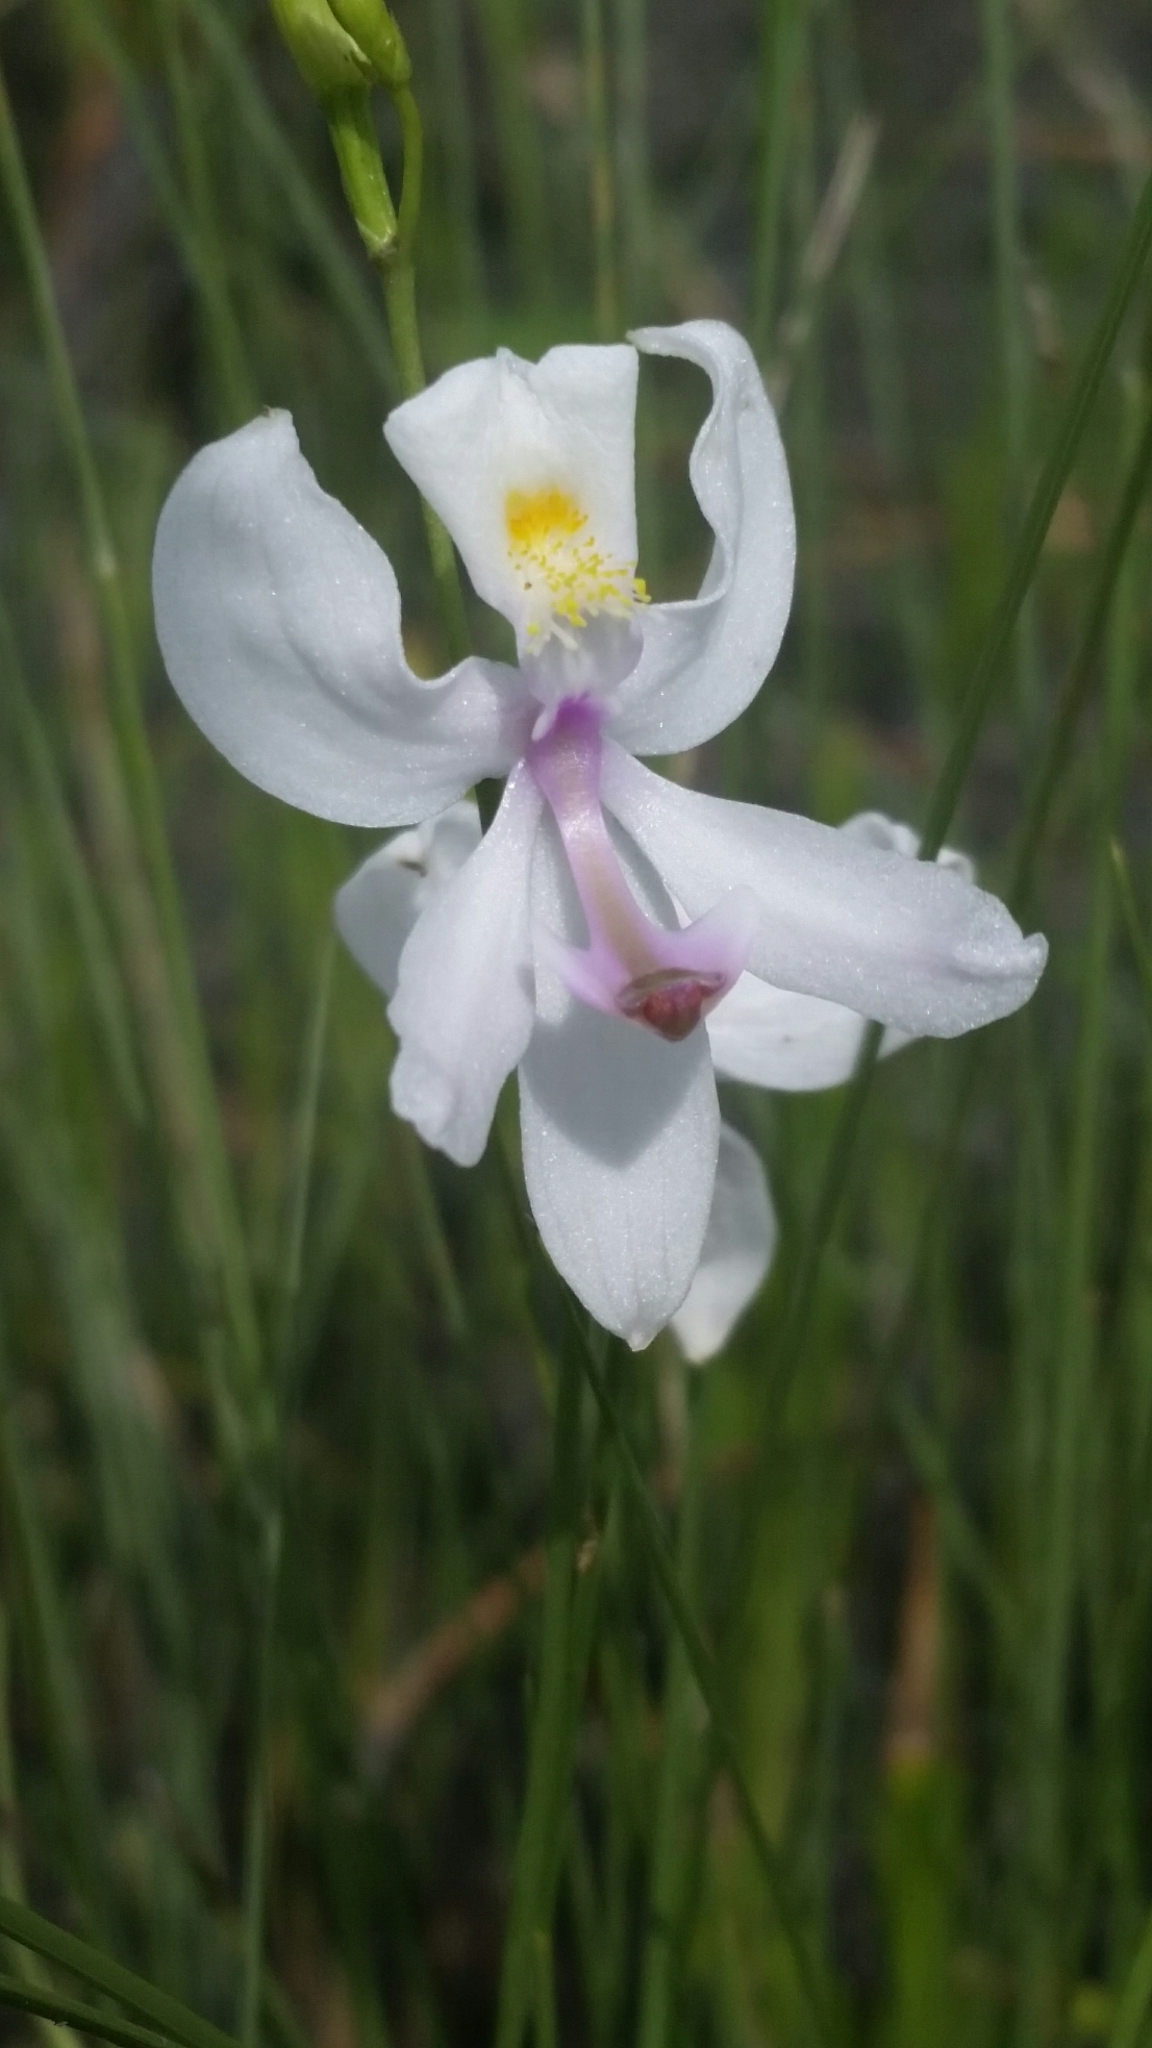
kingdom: Plantae
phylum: Tracheophyta
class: Liliopsida
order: Asparagales
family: Orchidaceae
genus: Calopogon
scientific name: Calopogon pallidus
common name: Pale grasspink
